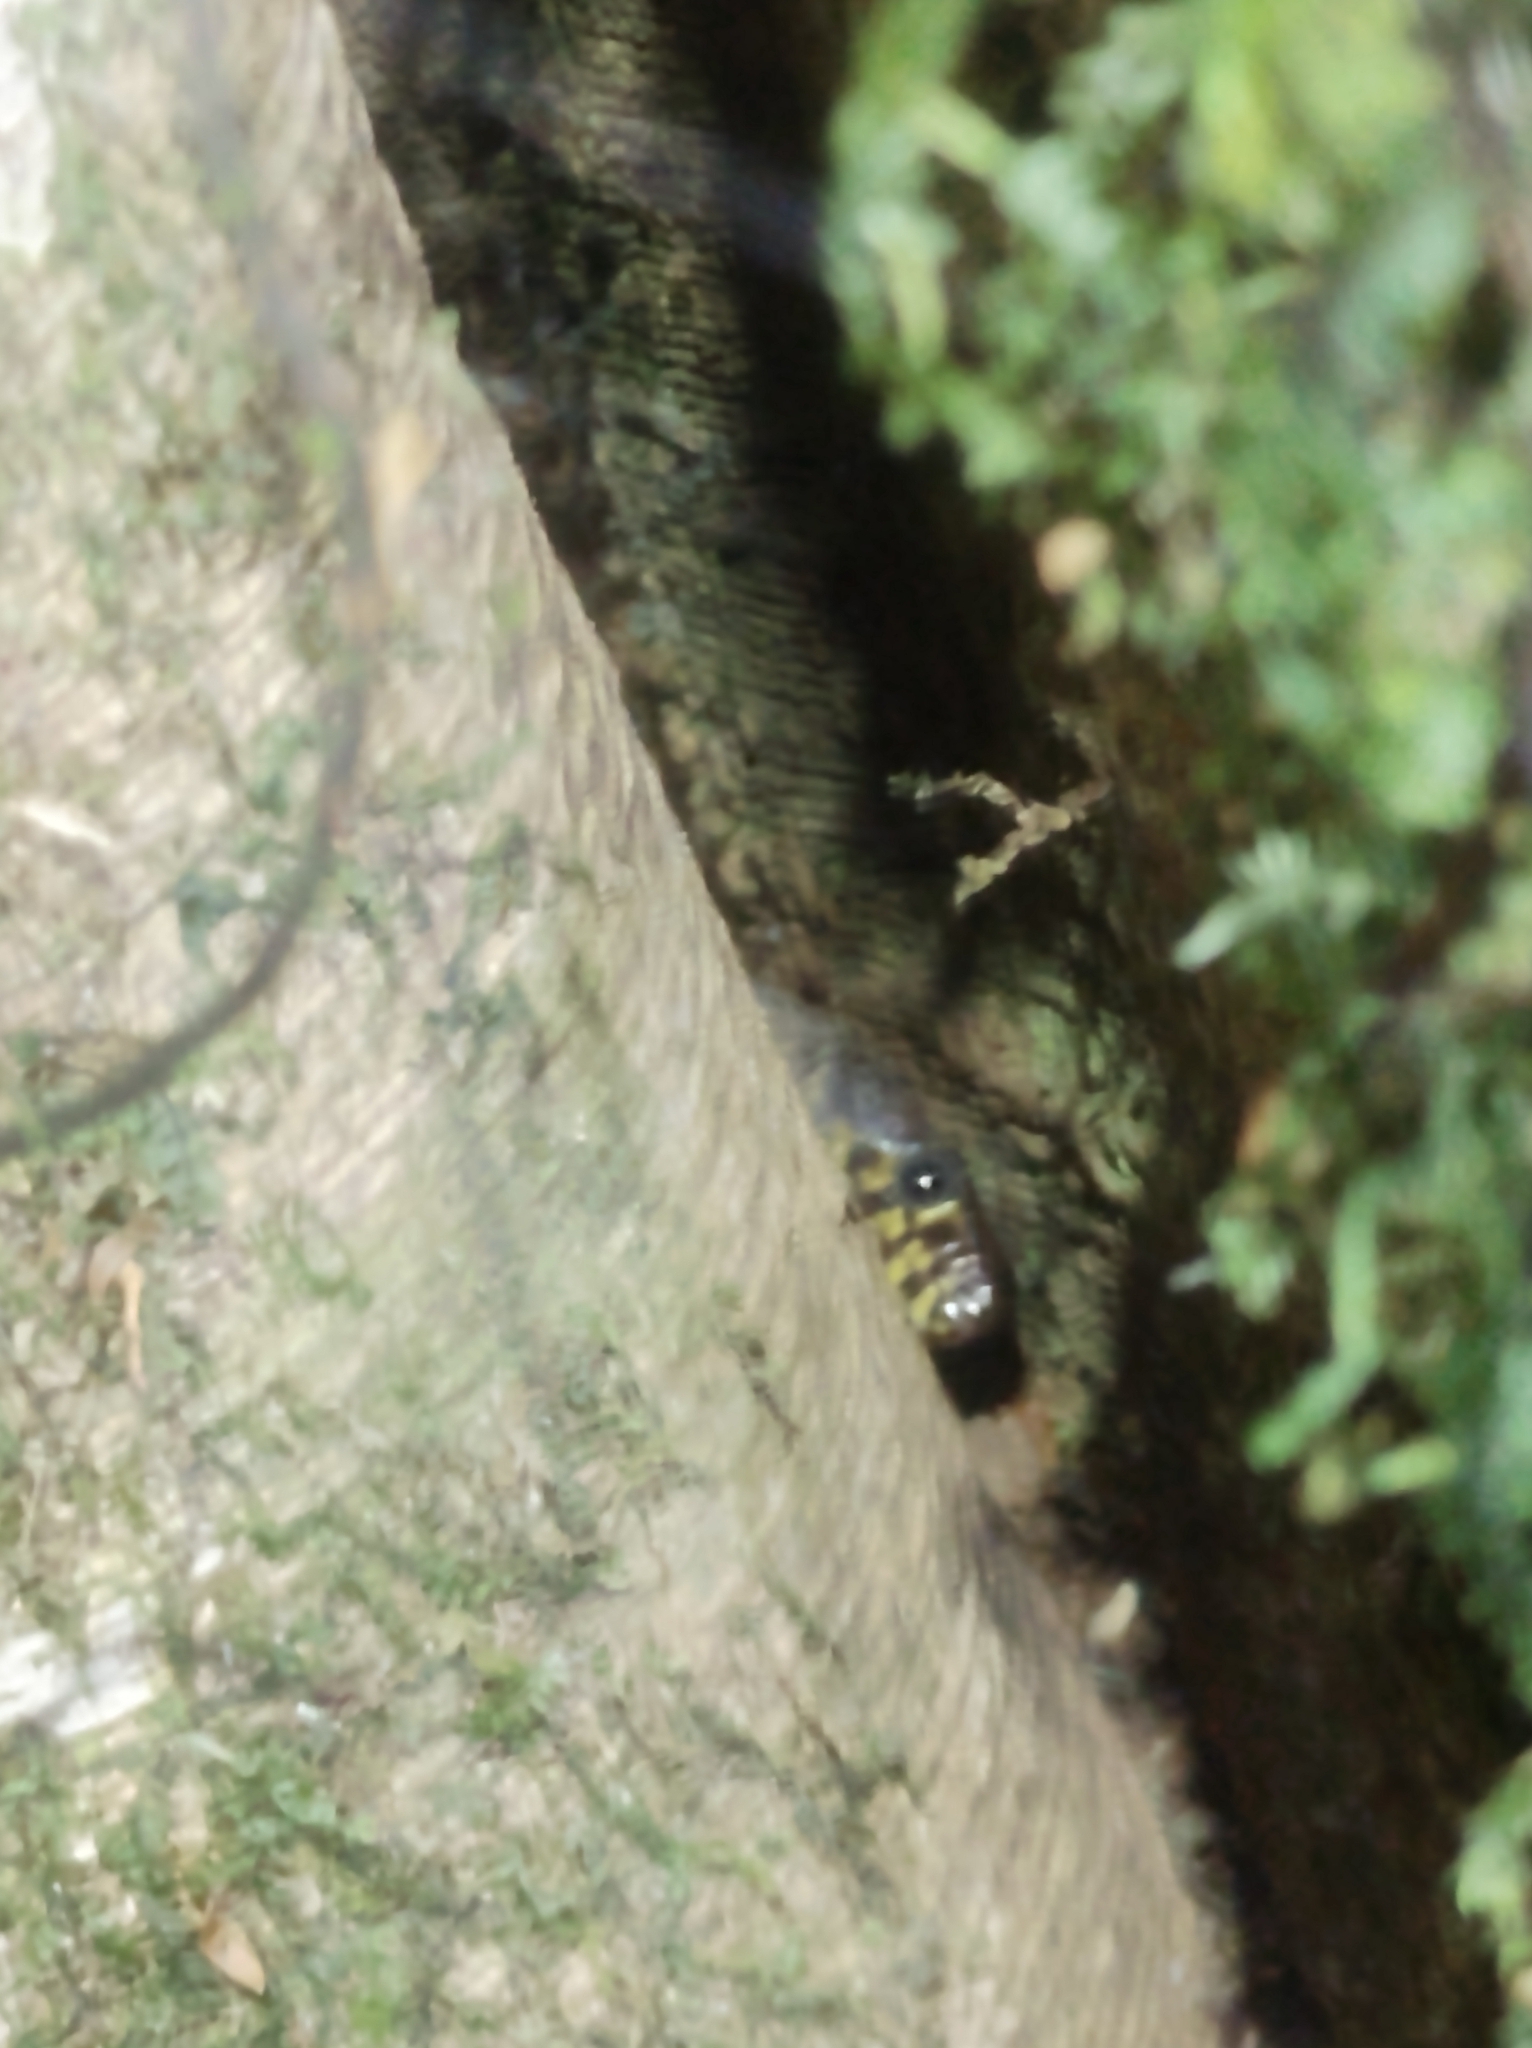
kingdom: Animalia
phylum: Chordata
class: Squamata
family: Xantusiidae
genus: Lepidophyma
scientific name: Lepidophyma flavimaculatum
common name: Yellow-spotted night lizard
